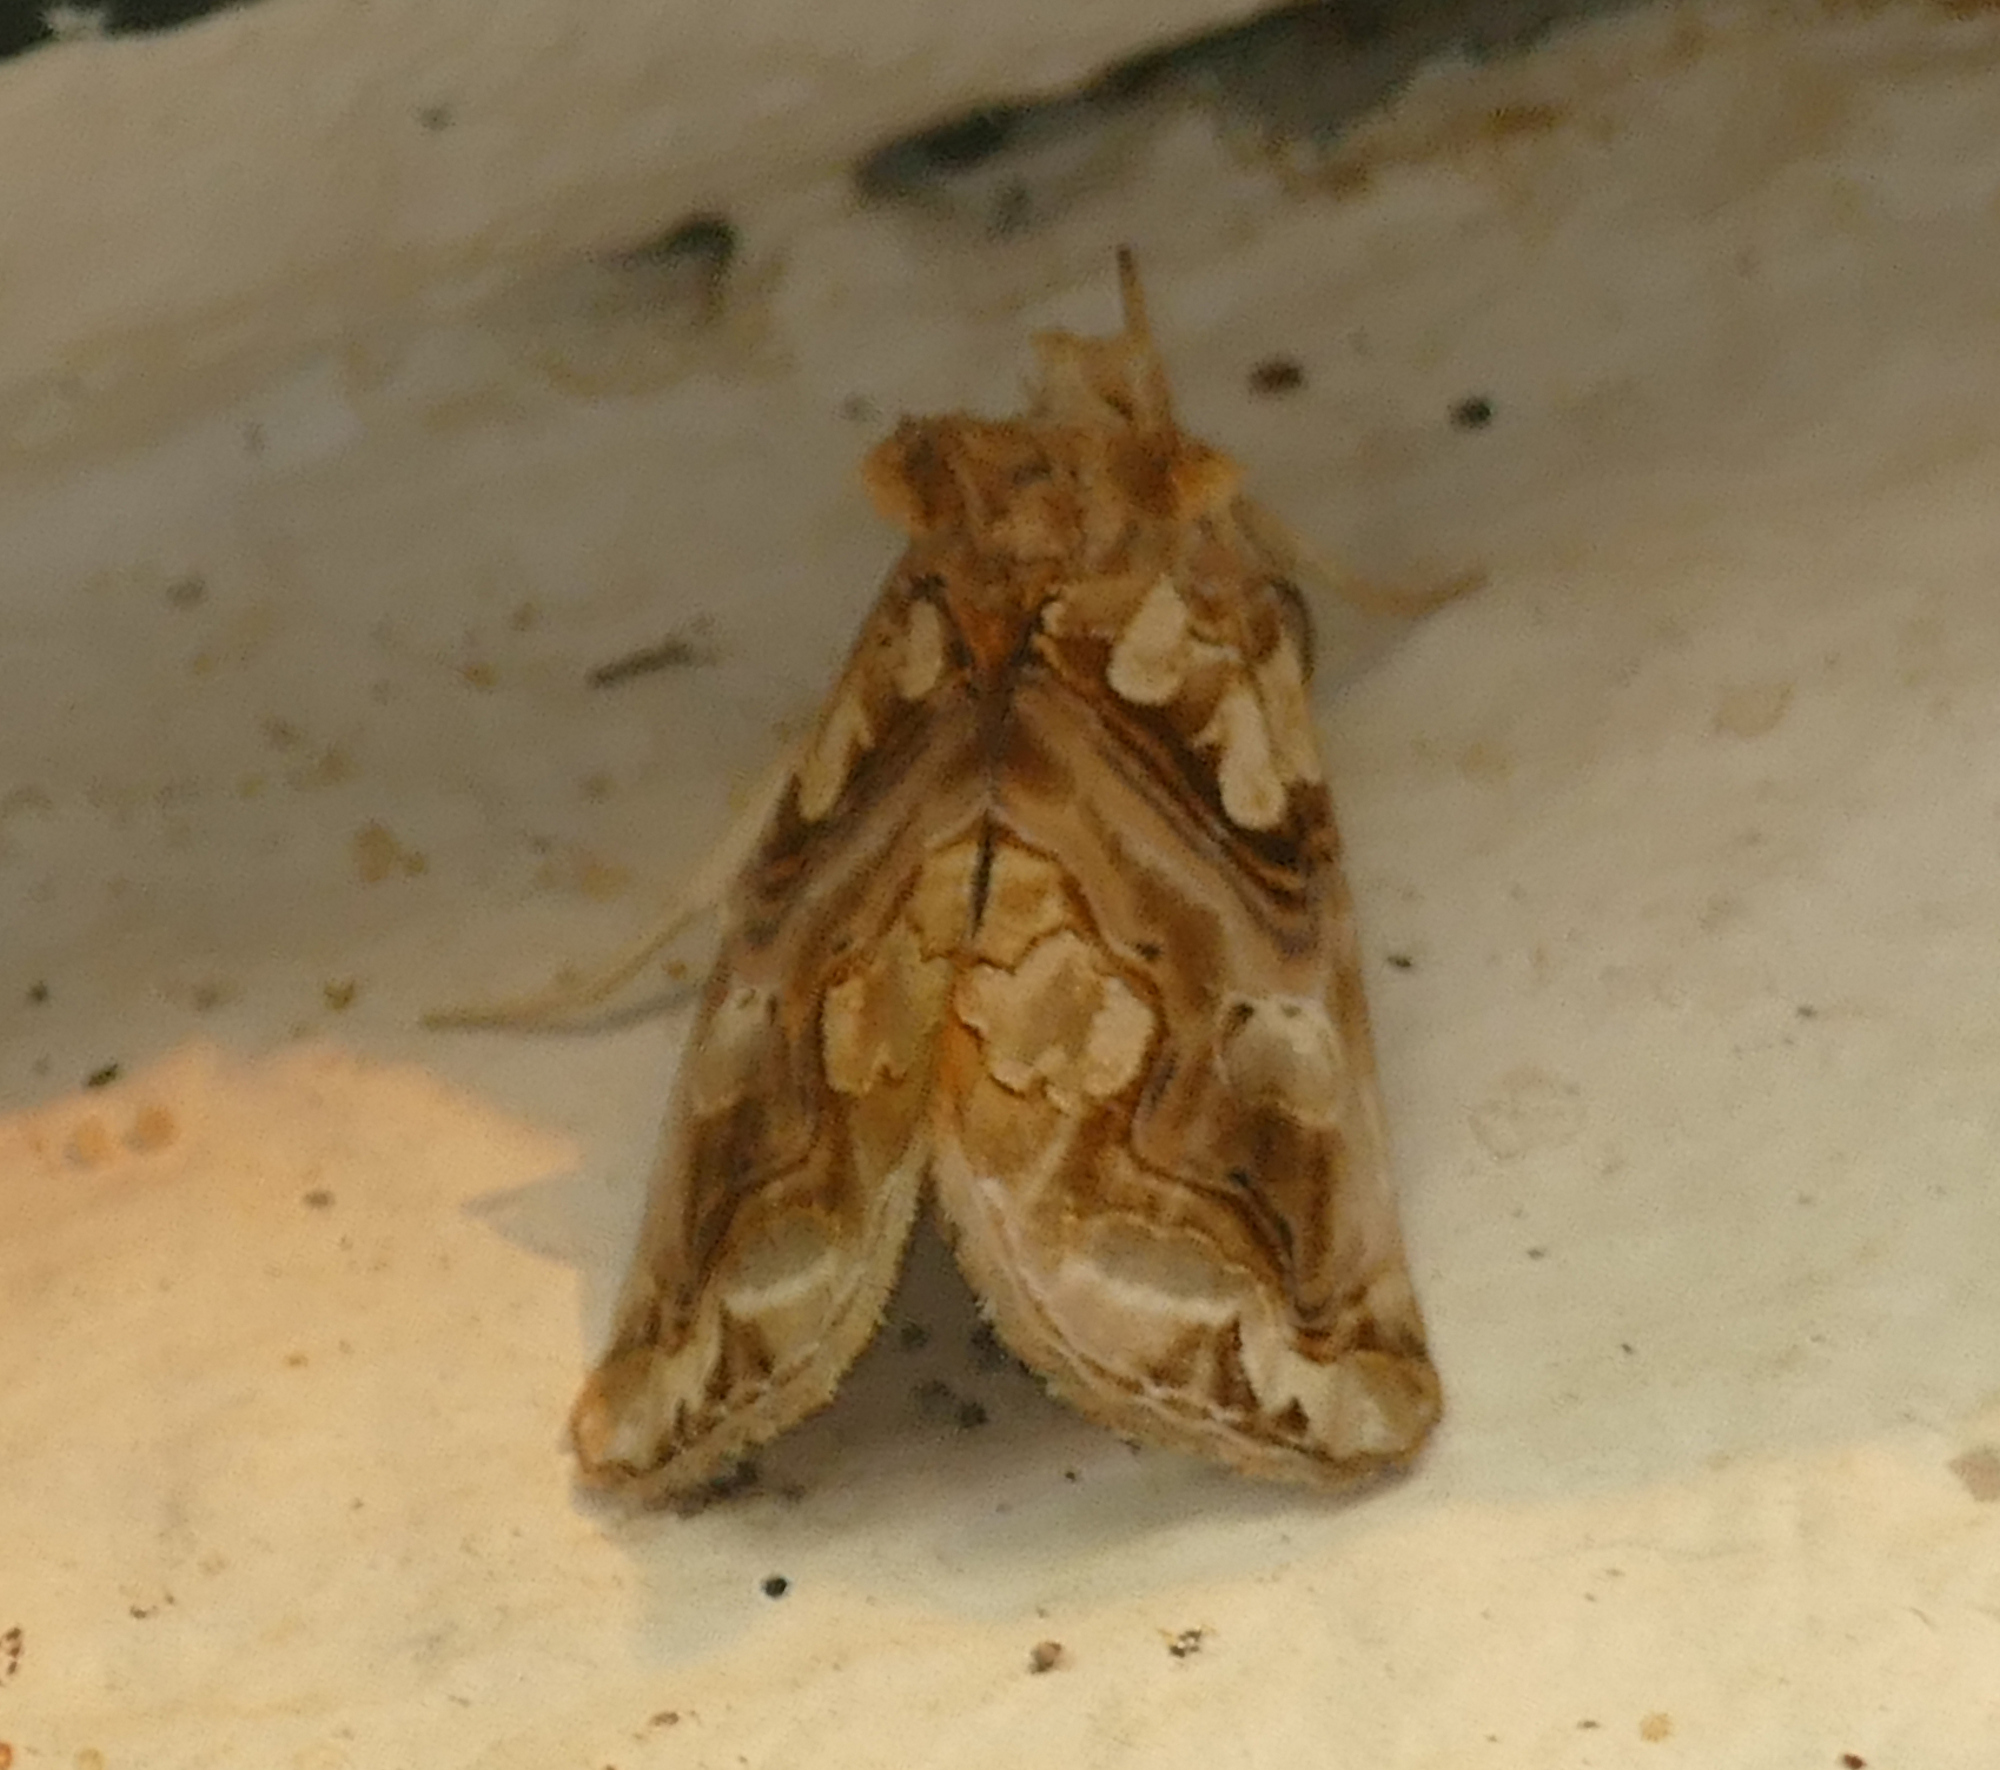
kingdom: Animalia
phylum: Arthropoda
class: Insecta
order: Lepidoptera
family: Erebidae
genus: Plusiodonta
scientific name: Plusiodonta compressipalpis
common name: Moonseed moth
